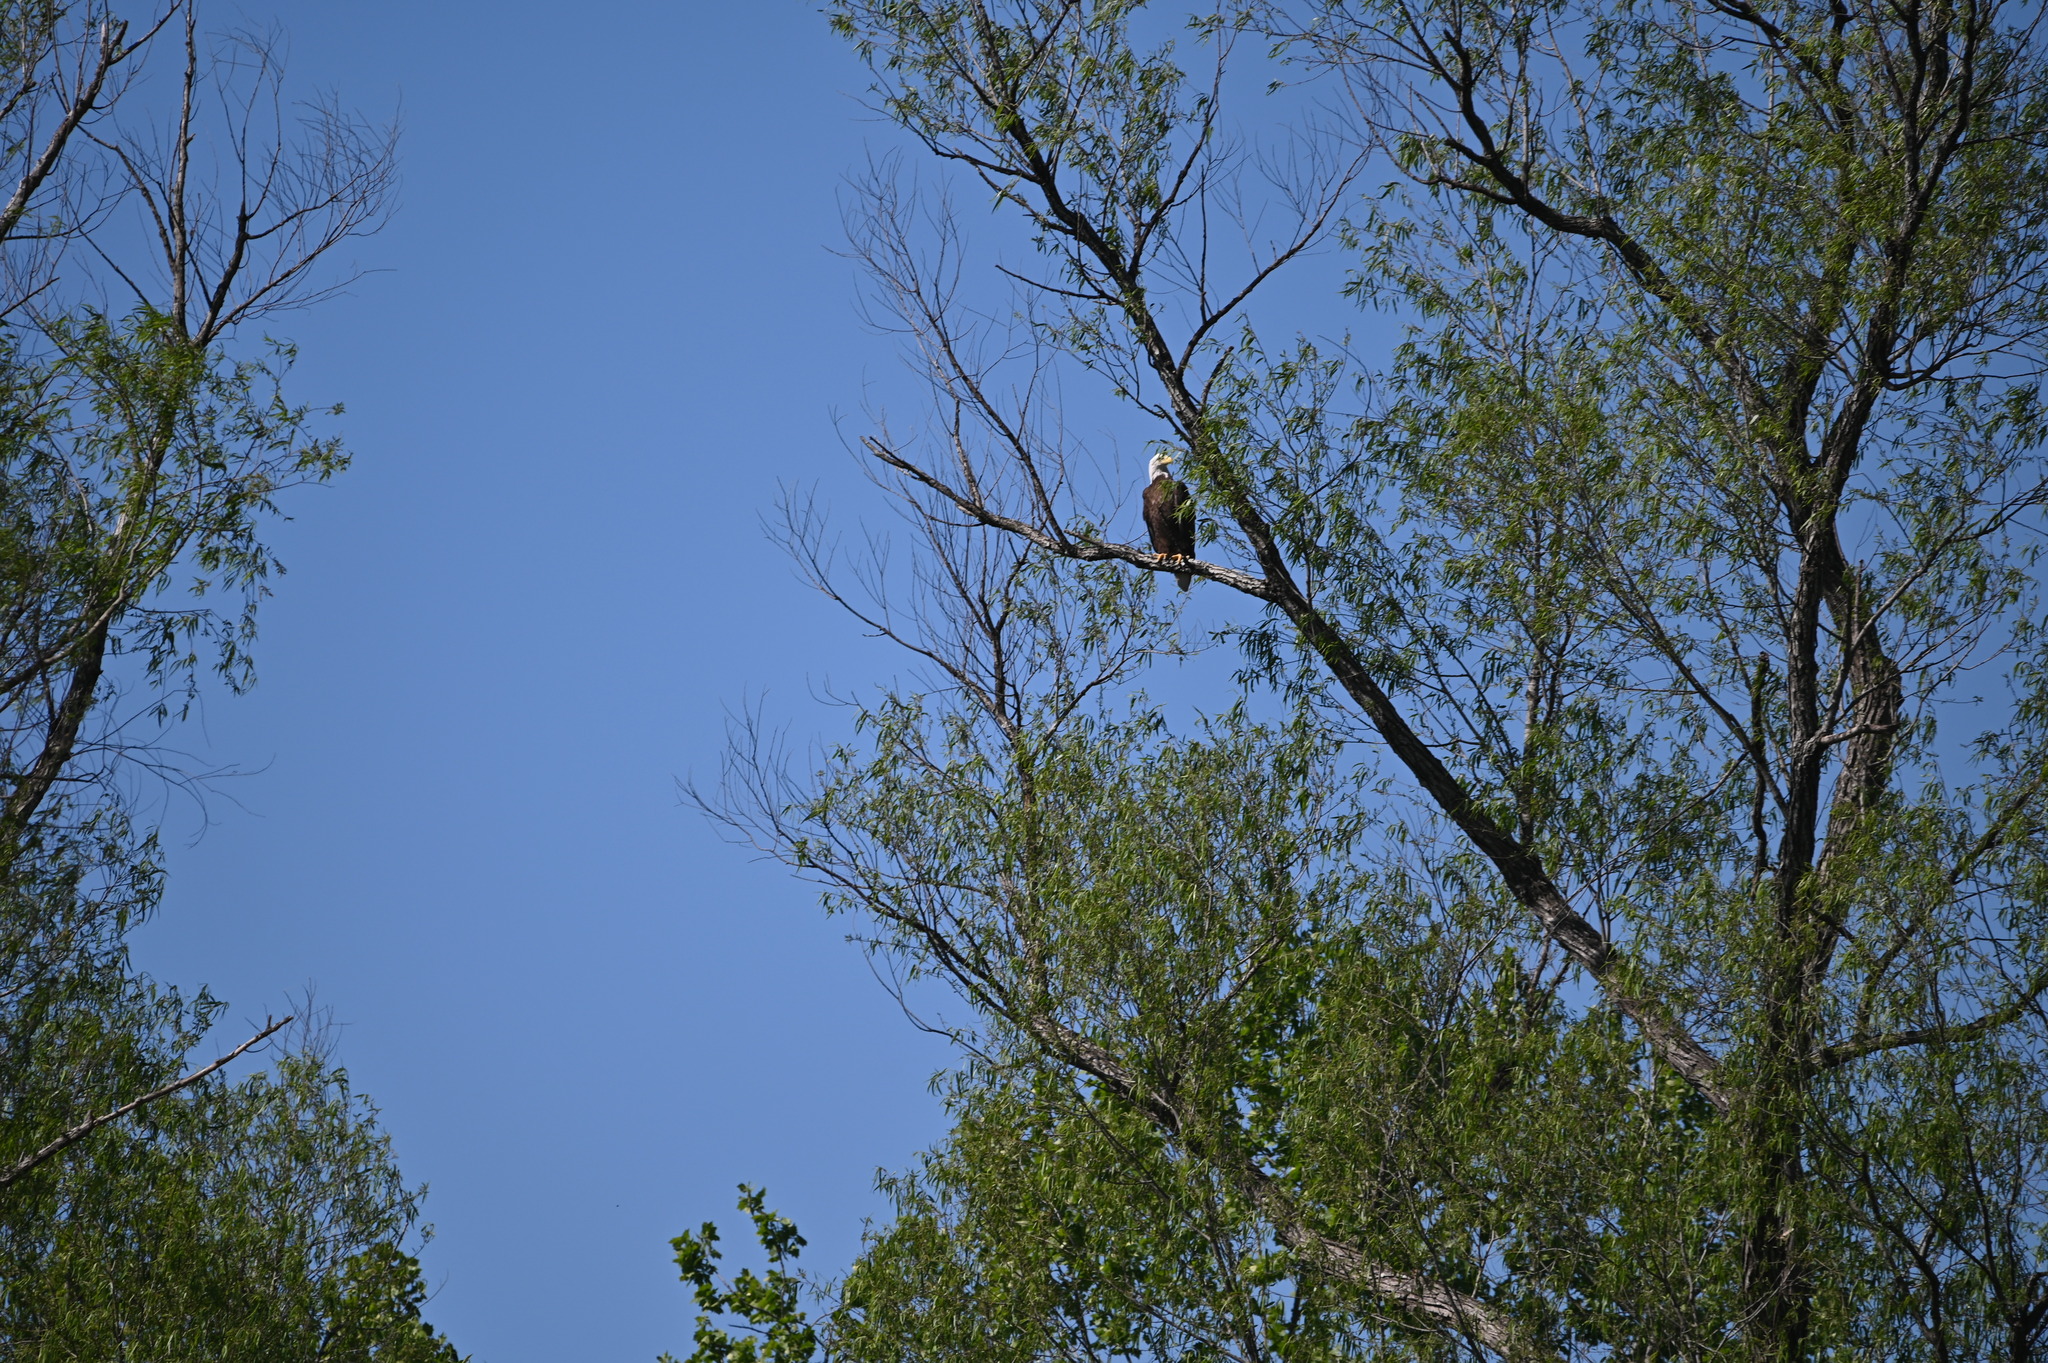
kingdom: Animalia
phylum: Chordata
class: Aves
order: Accipitriformes
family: Accipitridae
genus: Haliaeetus
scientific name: Haliaeetus leucocephalus
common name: Bald eagle
